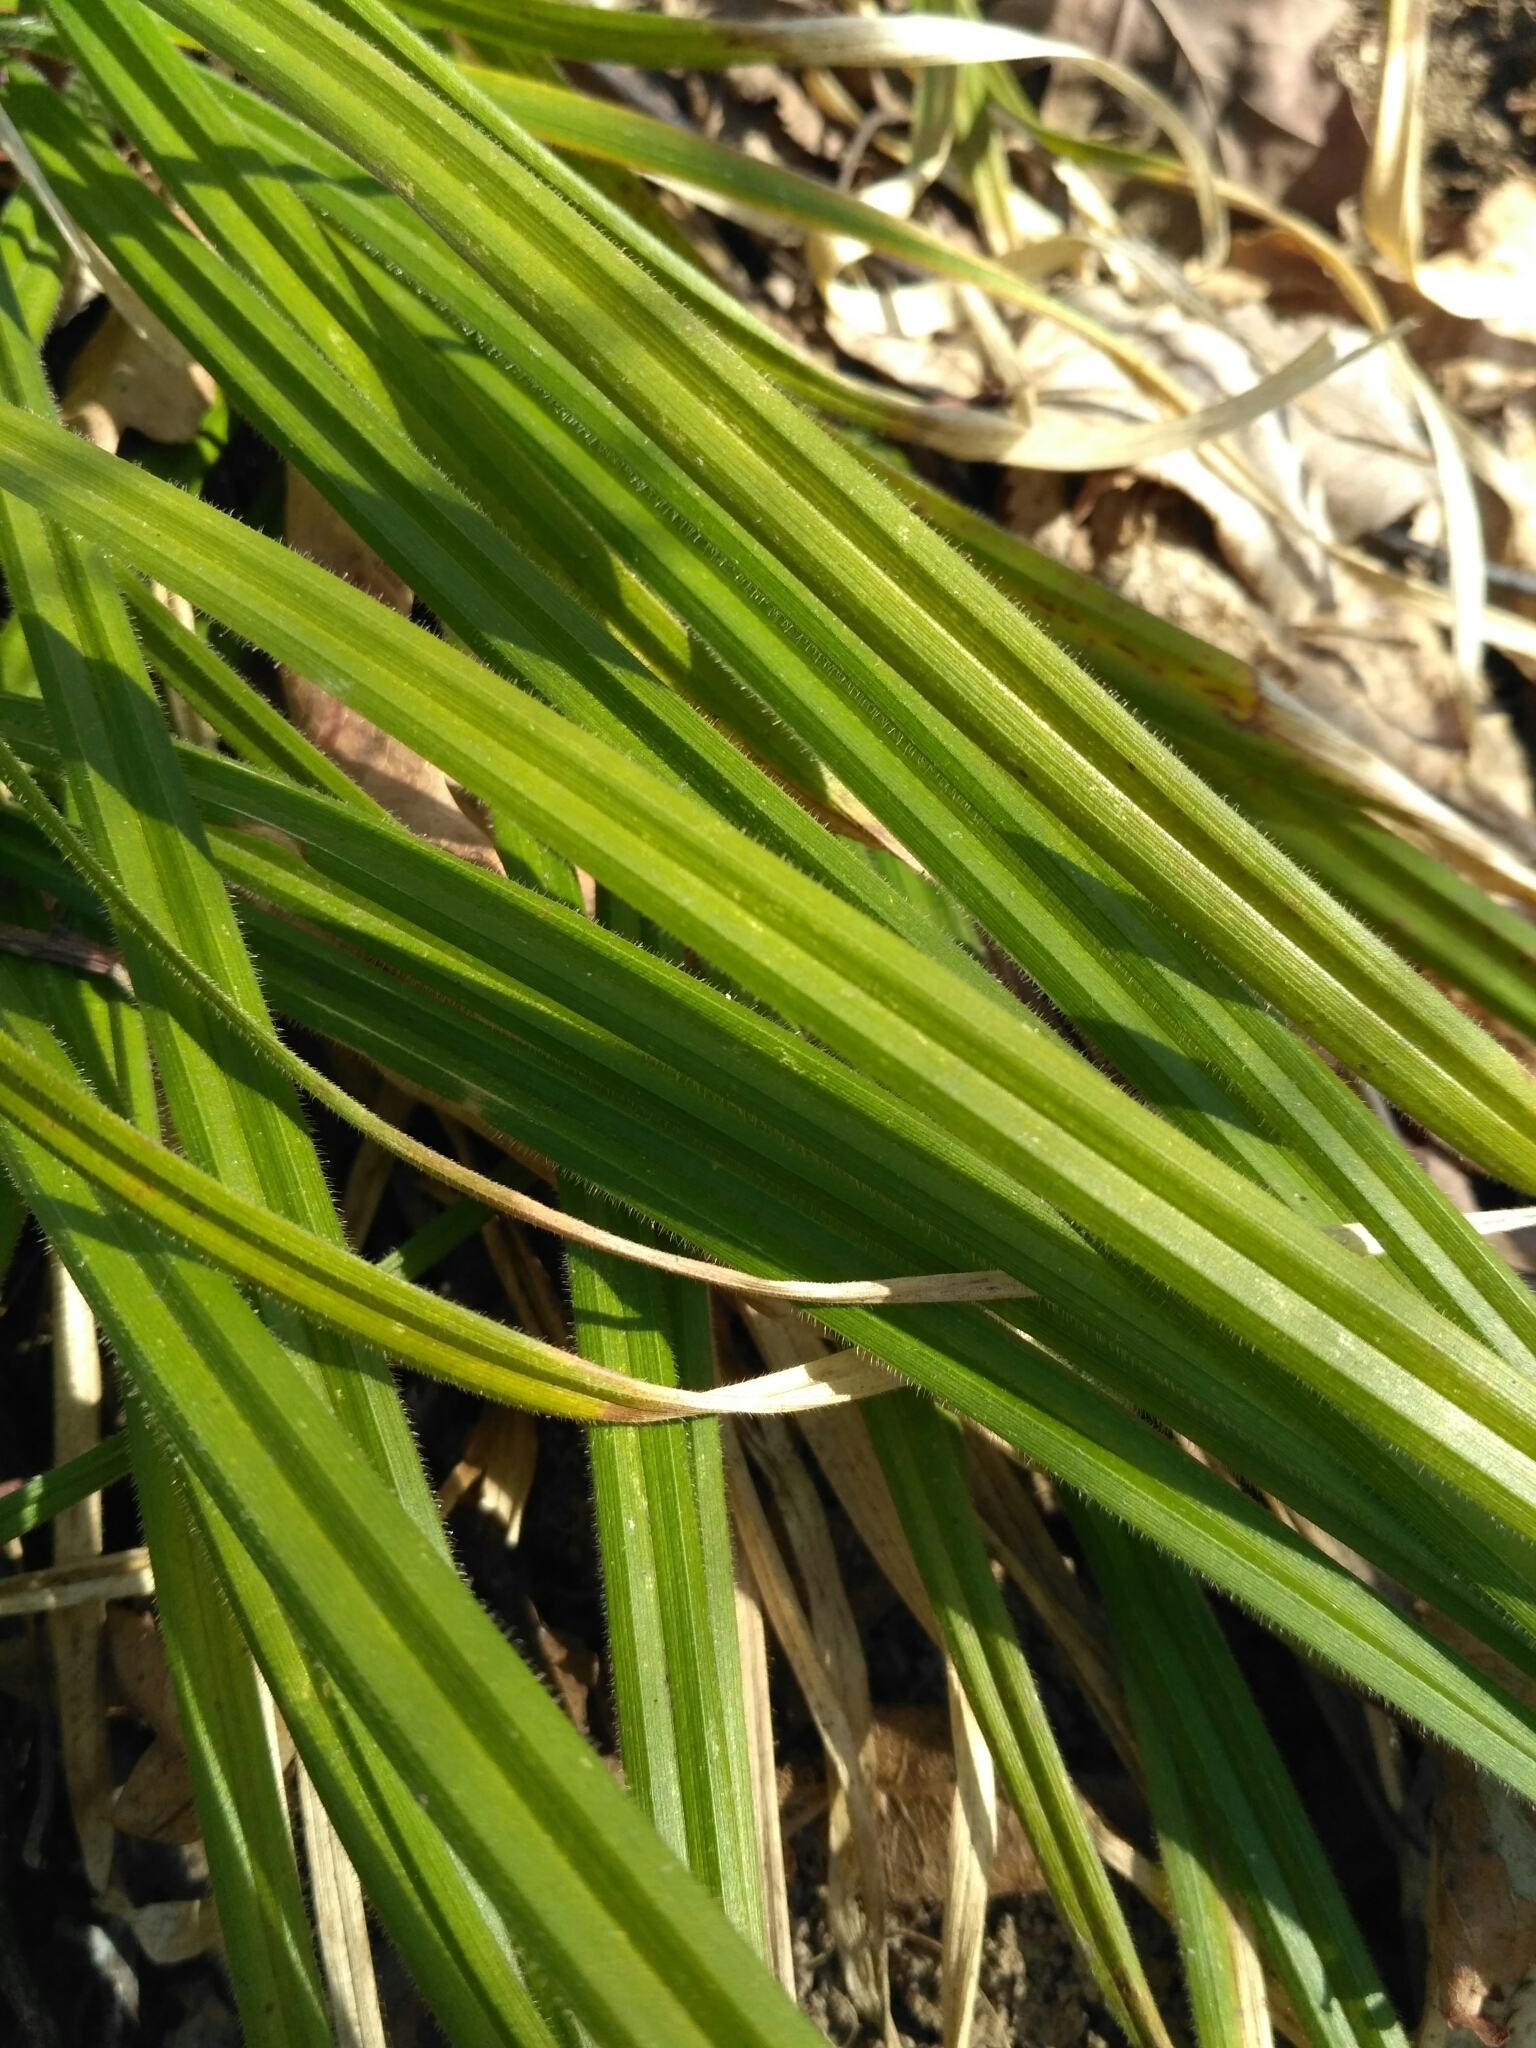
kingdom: Plantae
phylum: Tracheophyta
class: Liliopsida
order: Poales
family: Cyperaceae
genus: Carex
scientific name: Carex pilosa
